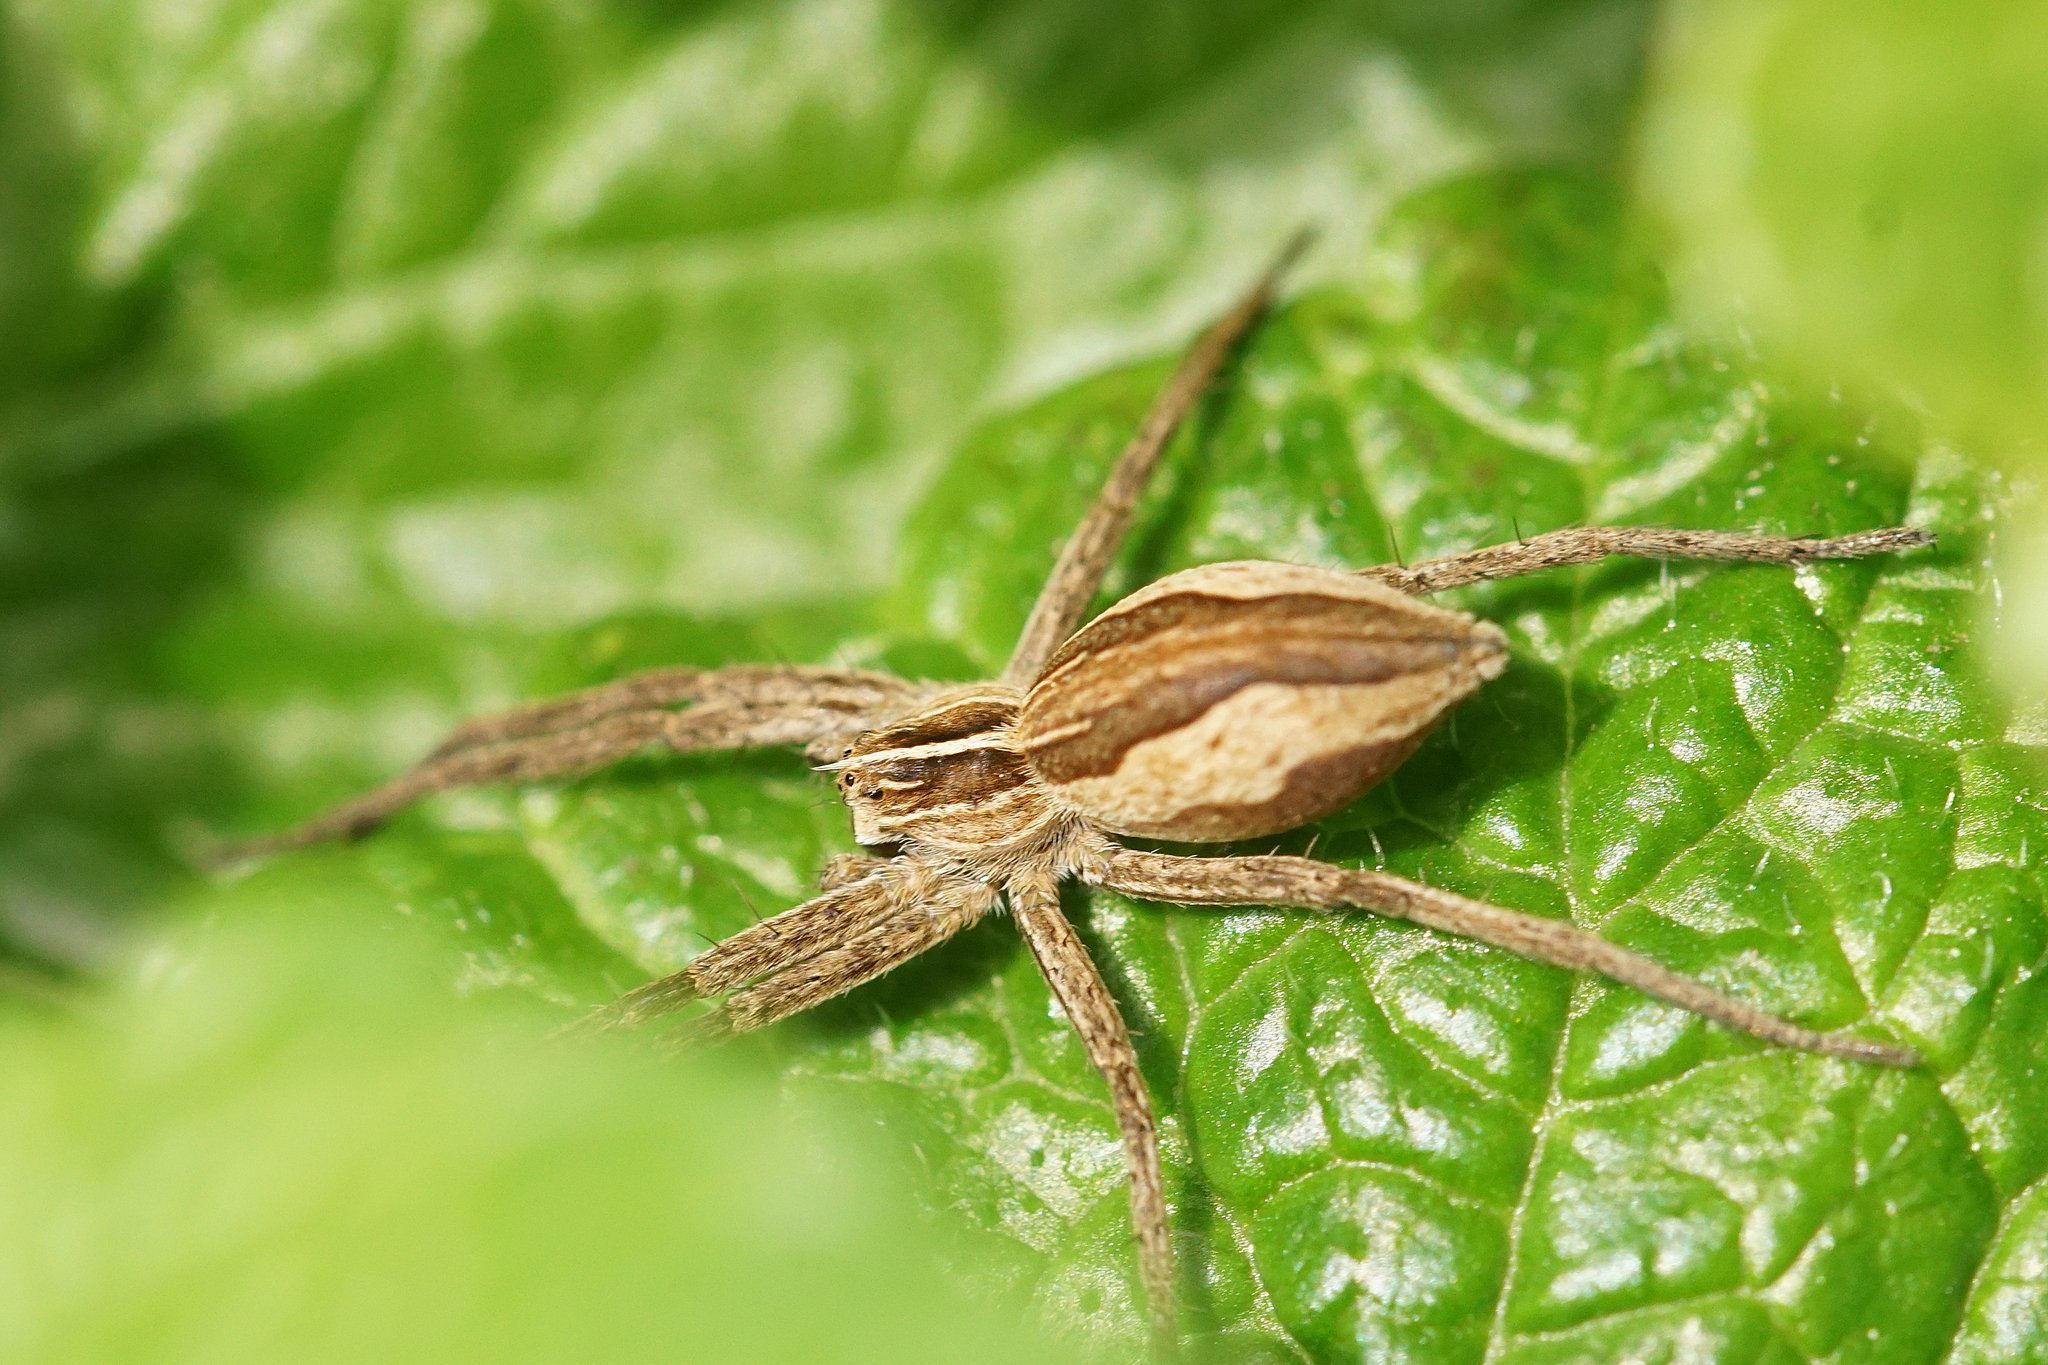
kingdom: Animalia
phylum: Arthropoda
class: Arachnida
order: Araneae
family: Pisauridae
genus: Pisaura
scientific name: Pisaura mirabilis
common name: Tent spider
